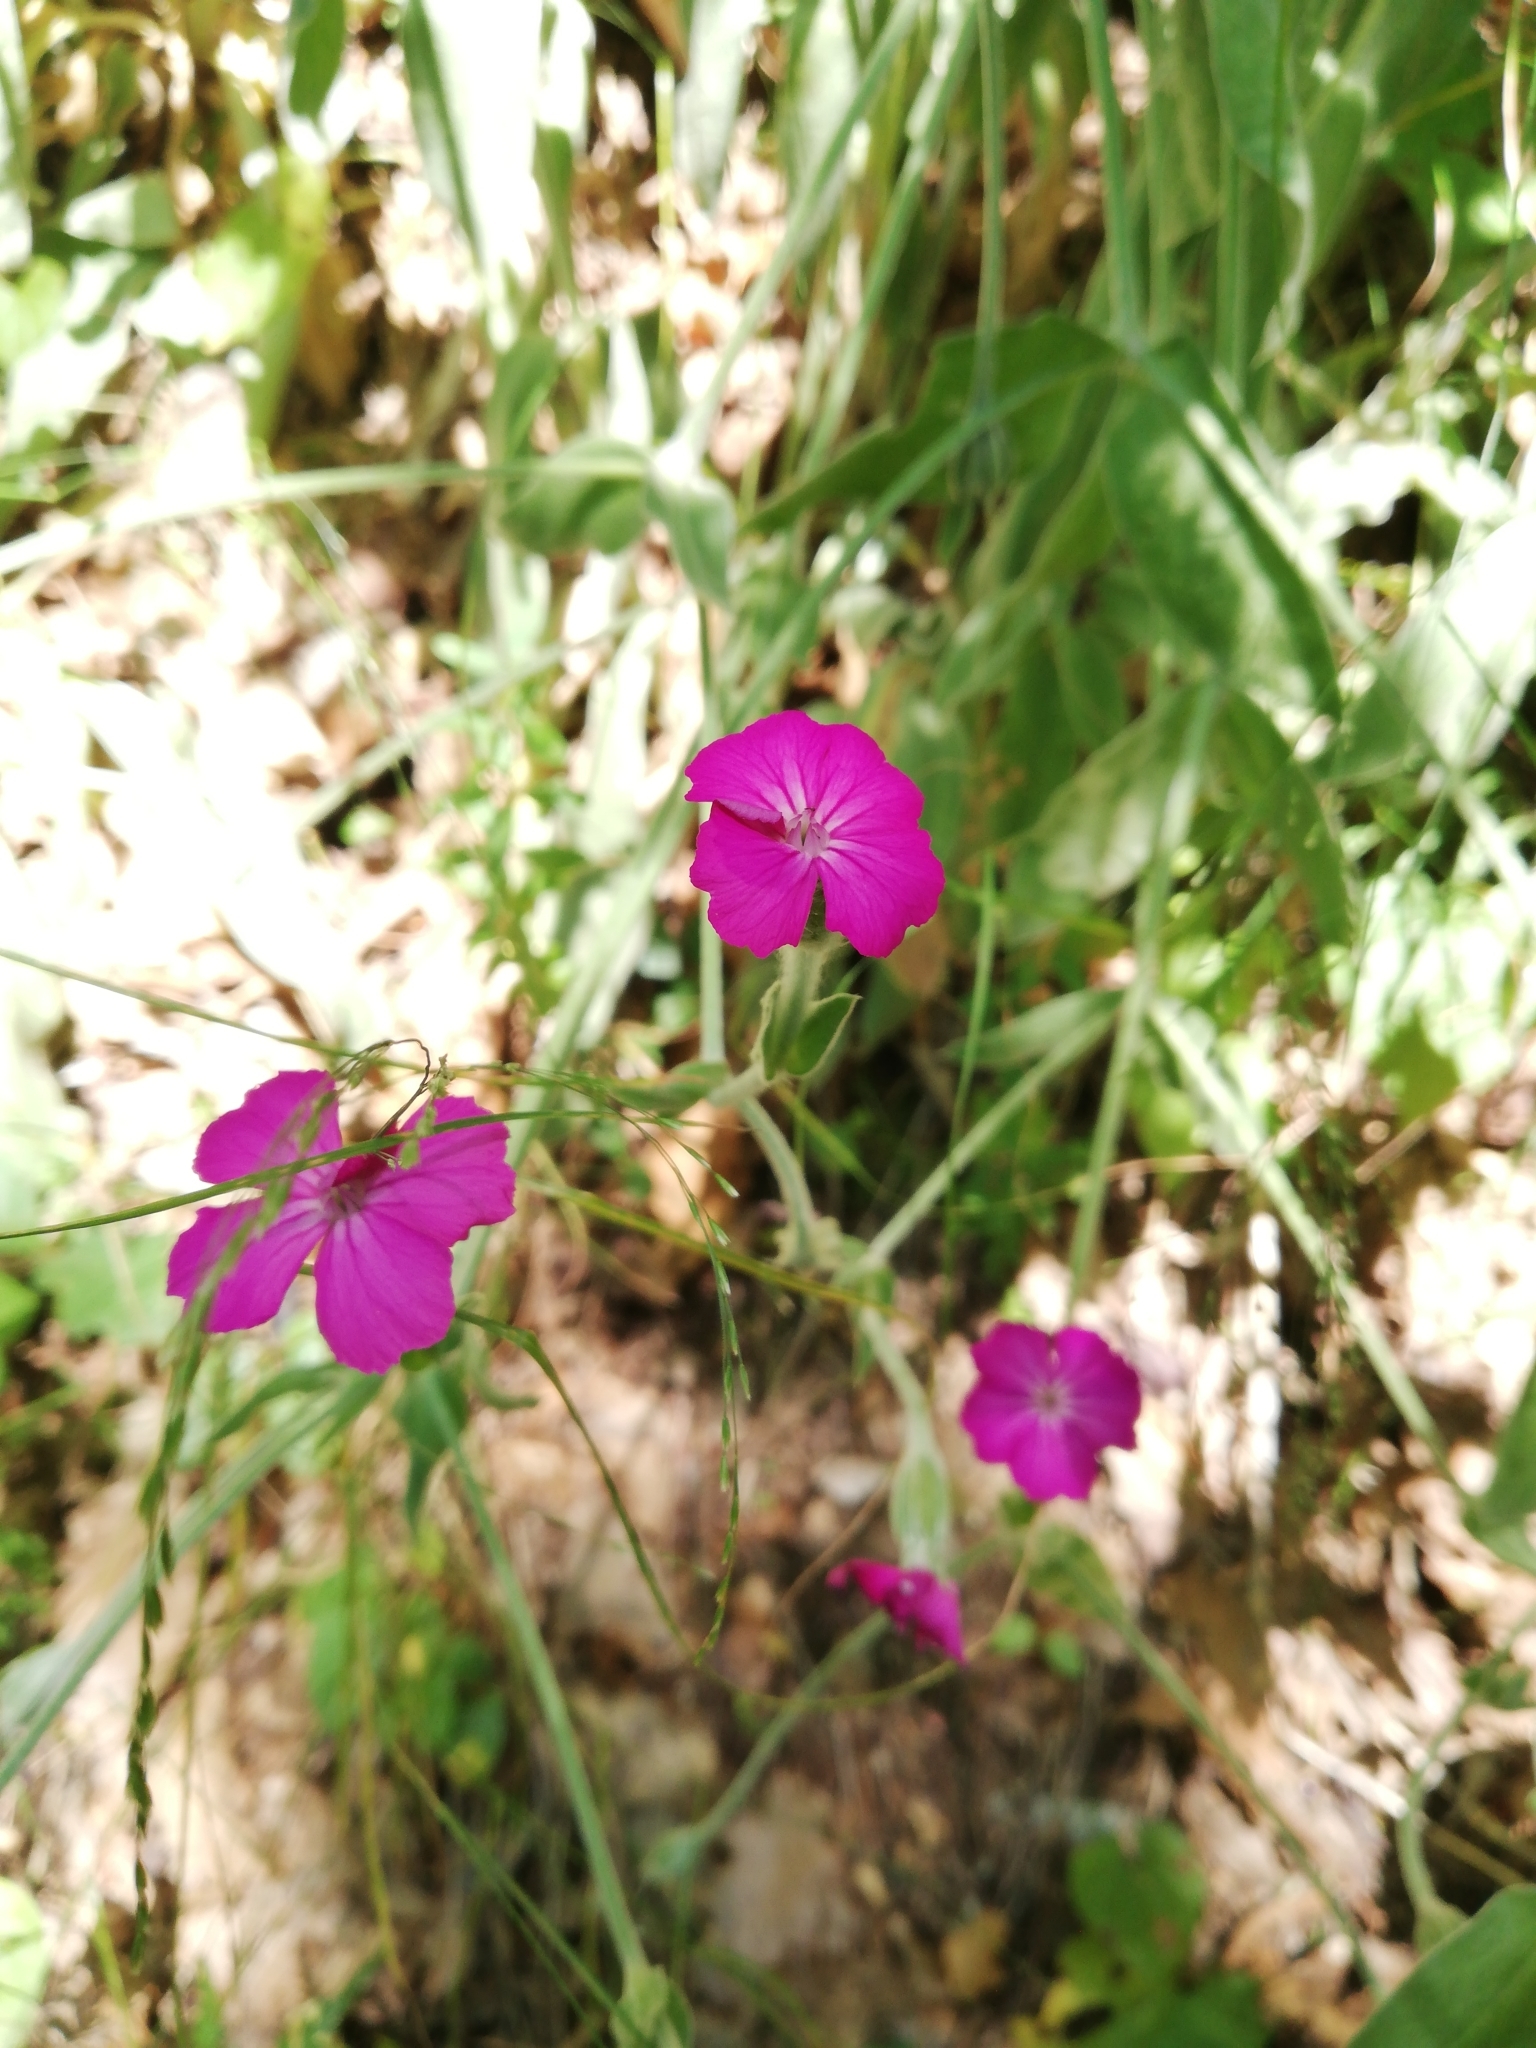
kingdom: Plantae
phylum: Tracheophyta
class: Magnoliopsida
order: Caryophyllales
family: Caryophyllaceae
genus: Silene
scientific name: Silene coronaria
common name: Rose campion
